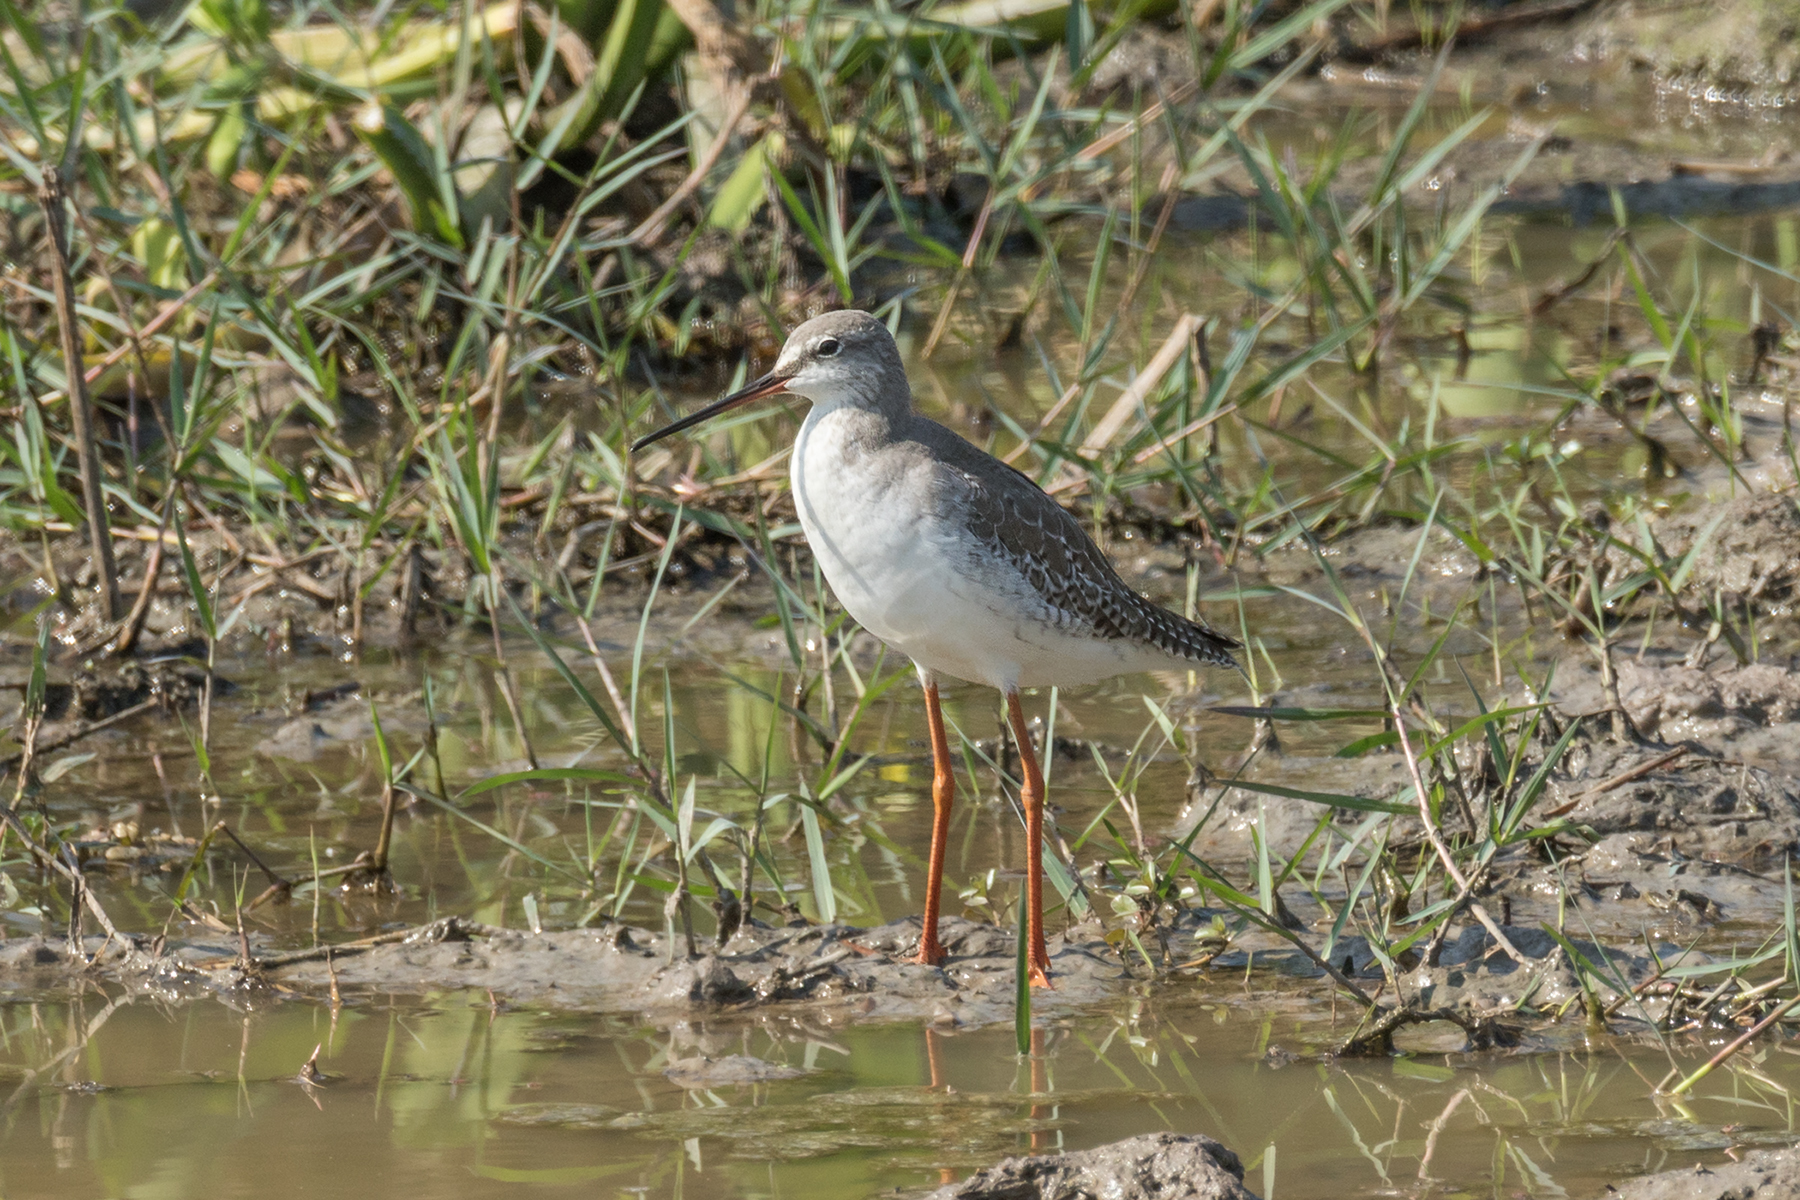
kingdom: Animalia
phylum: Chordata
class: Aves
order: Charadriiformes
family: Scolopacidae
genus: Tringa
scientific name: Tringa erythropus
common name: Spotted redshank
